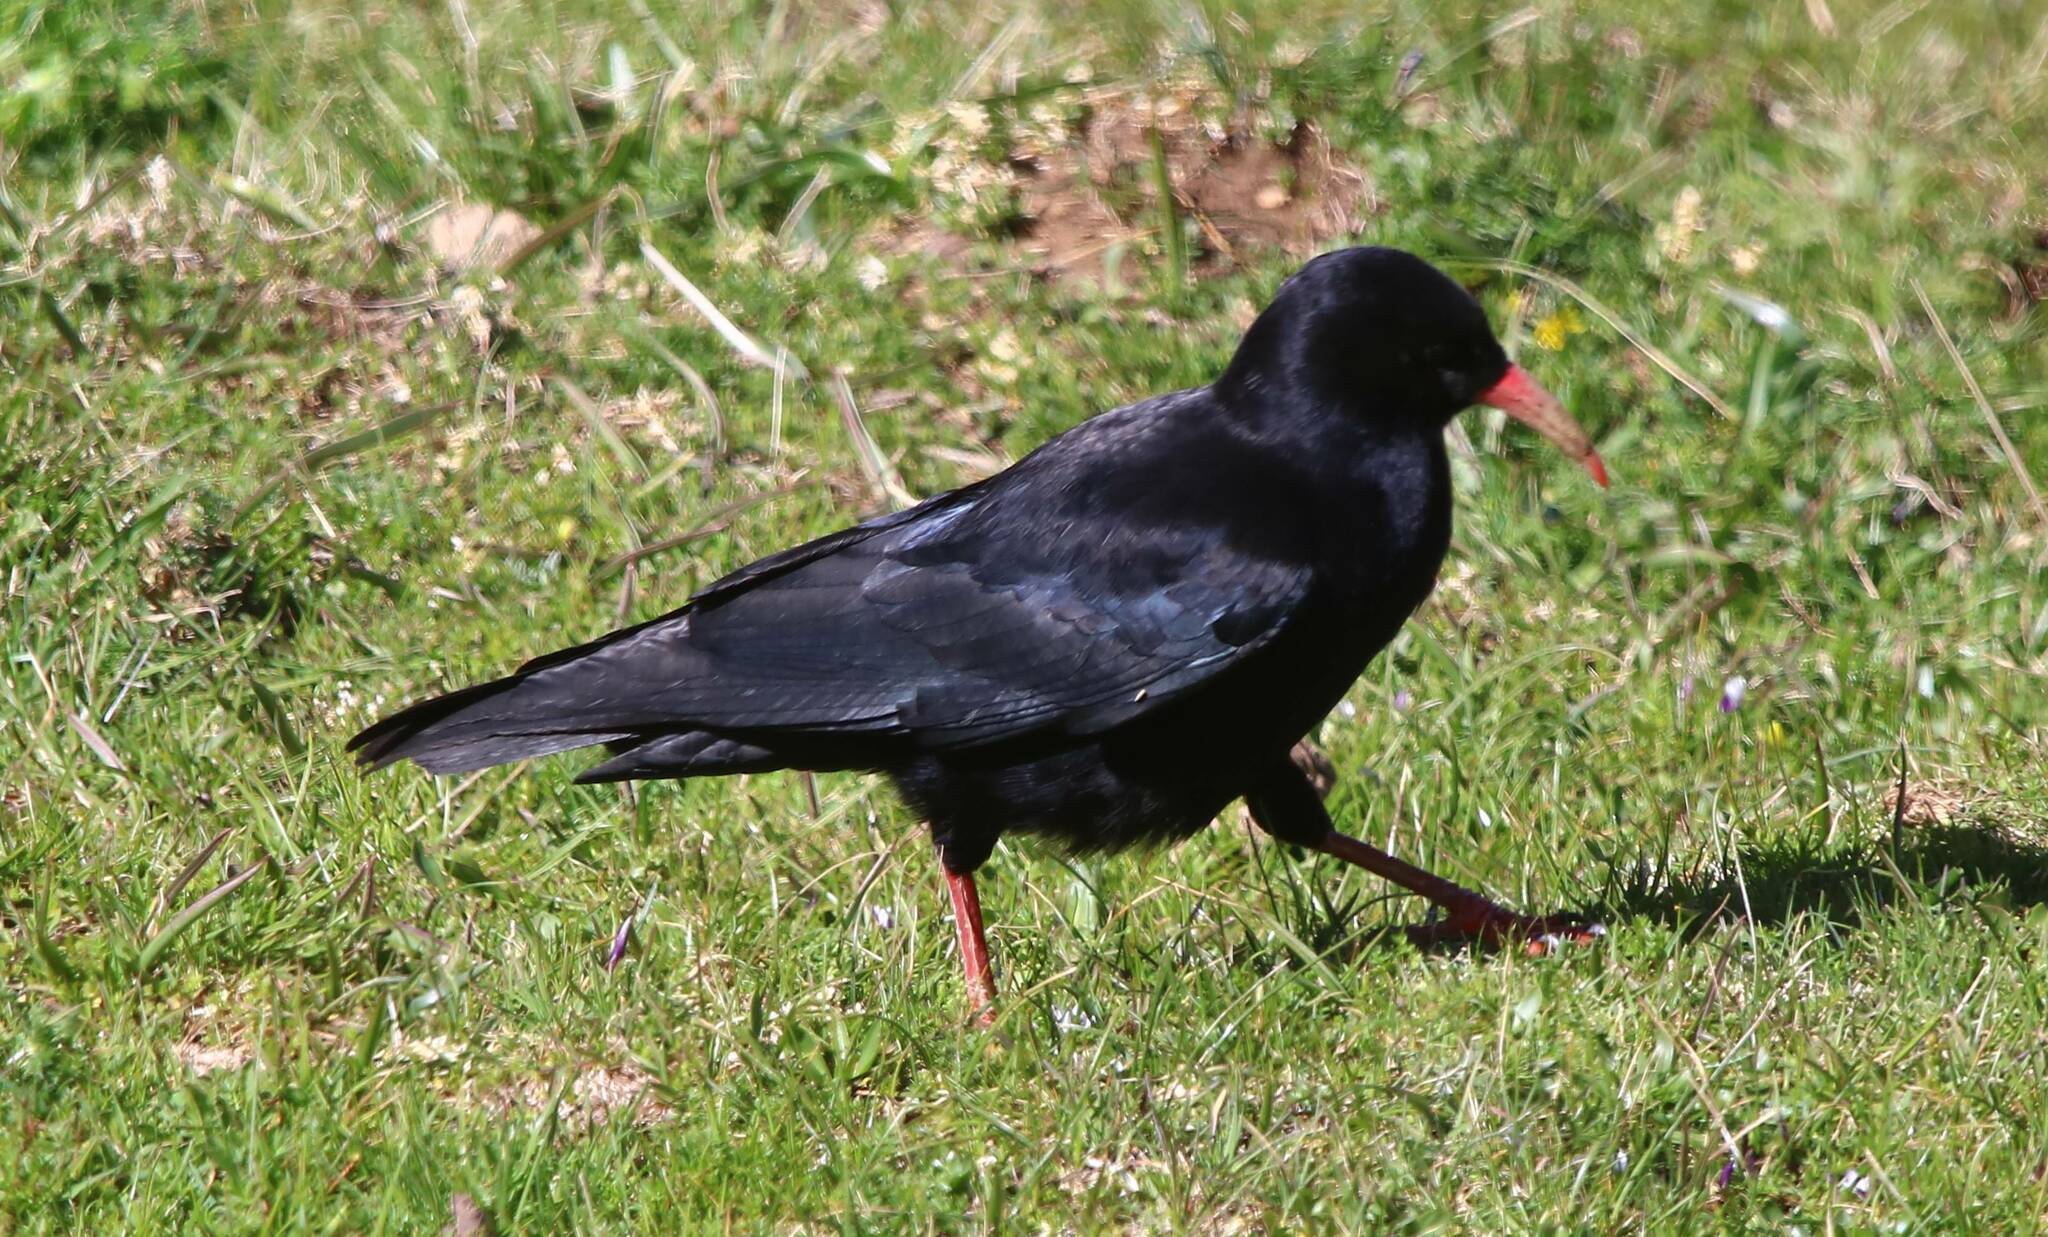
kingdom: Animalia
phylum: Chordata
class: Aves
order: Passeriformes
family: Corvidae
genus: Pyrrhocorax
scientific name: Pyrrhocorax pyrrhocorax
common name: Red-billed chough
